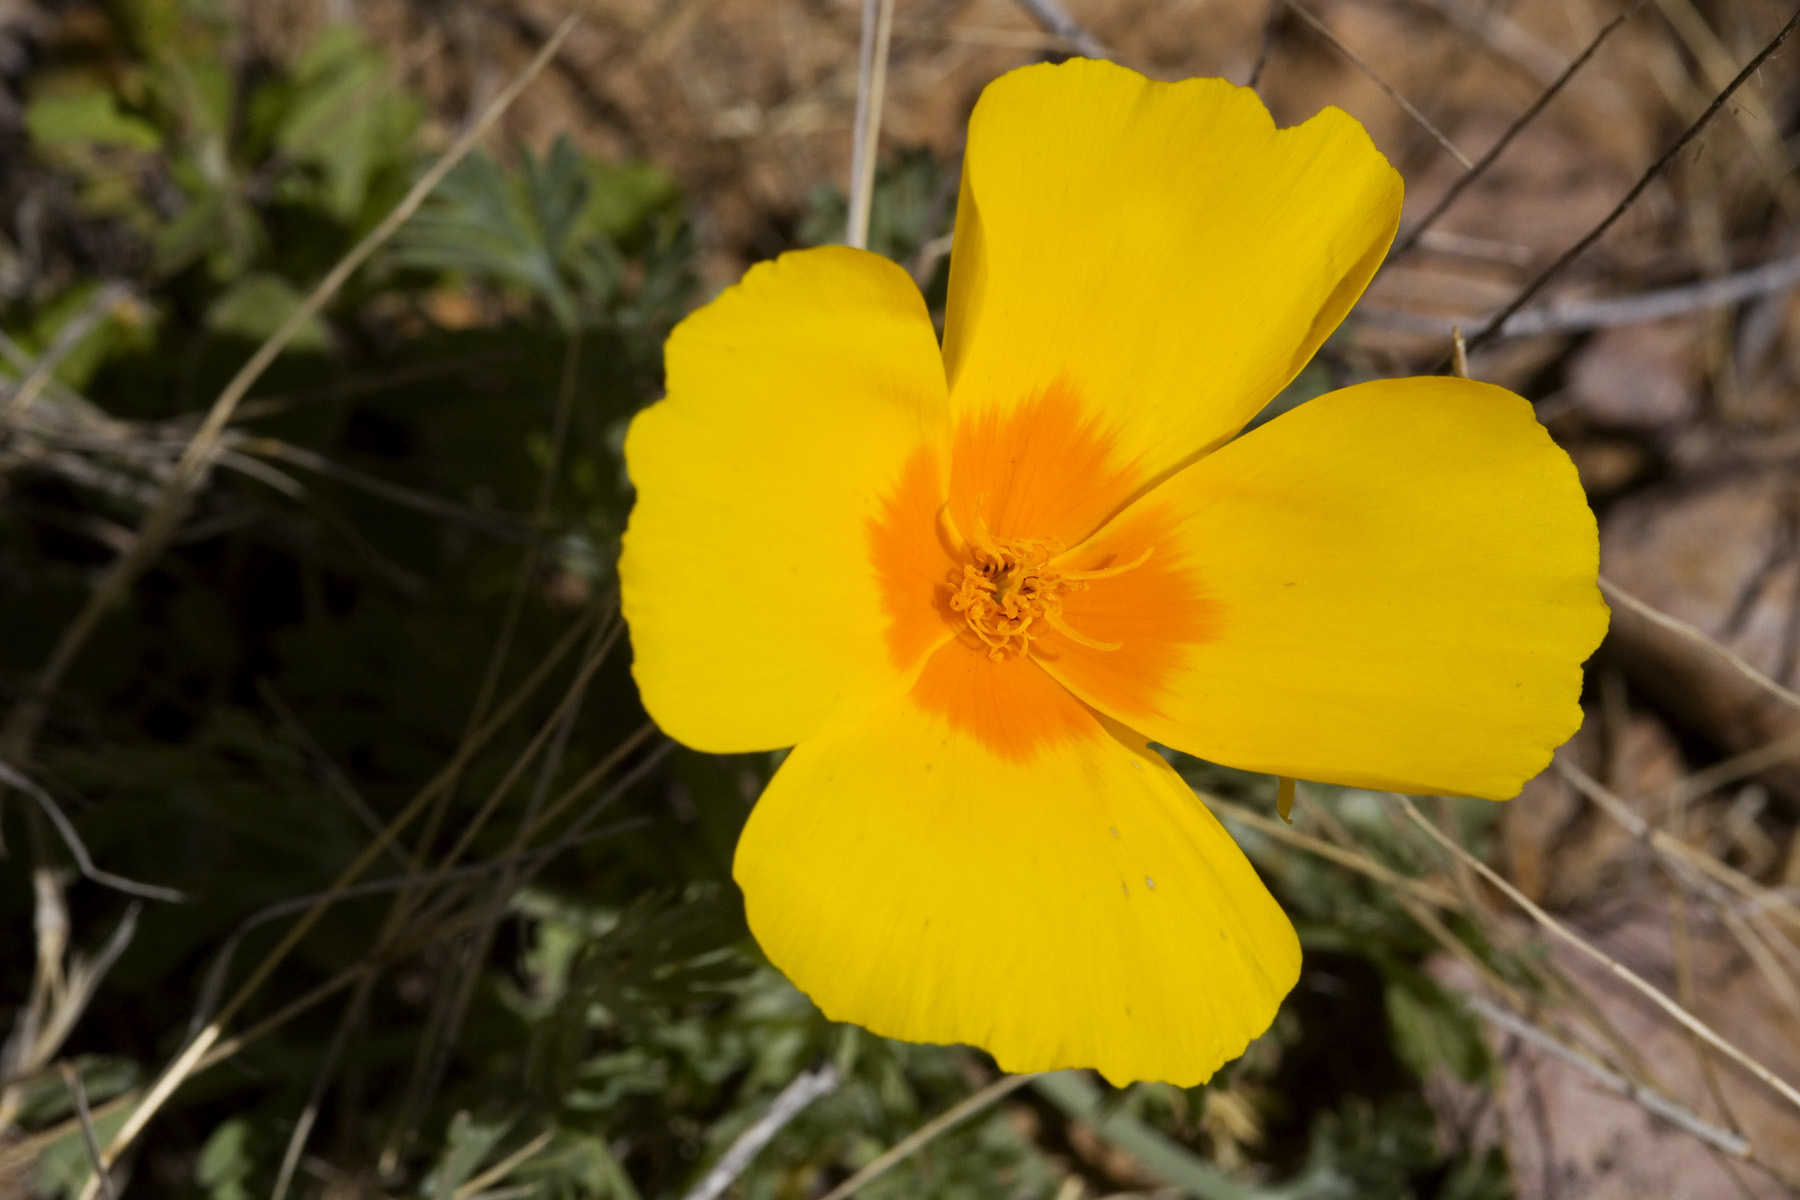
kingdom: Plantae
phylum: Tracheophyta
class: Magnoliopsida
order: Ranunculales
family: Papaveraceae
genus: Eschscholzia
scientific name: Eschscholzia californica
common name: California poppy
